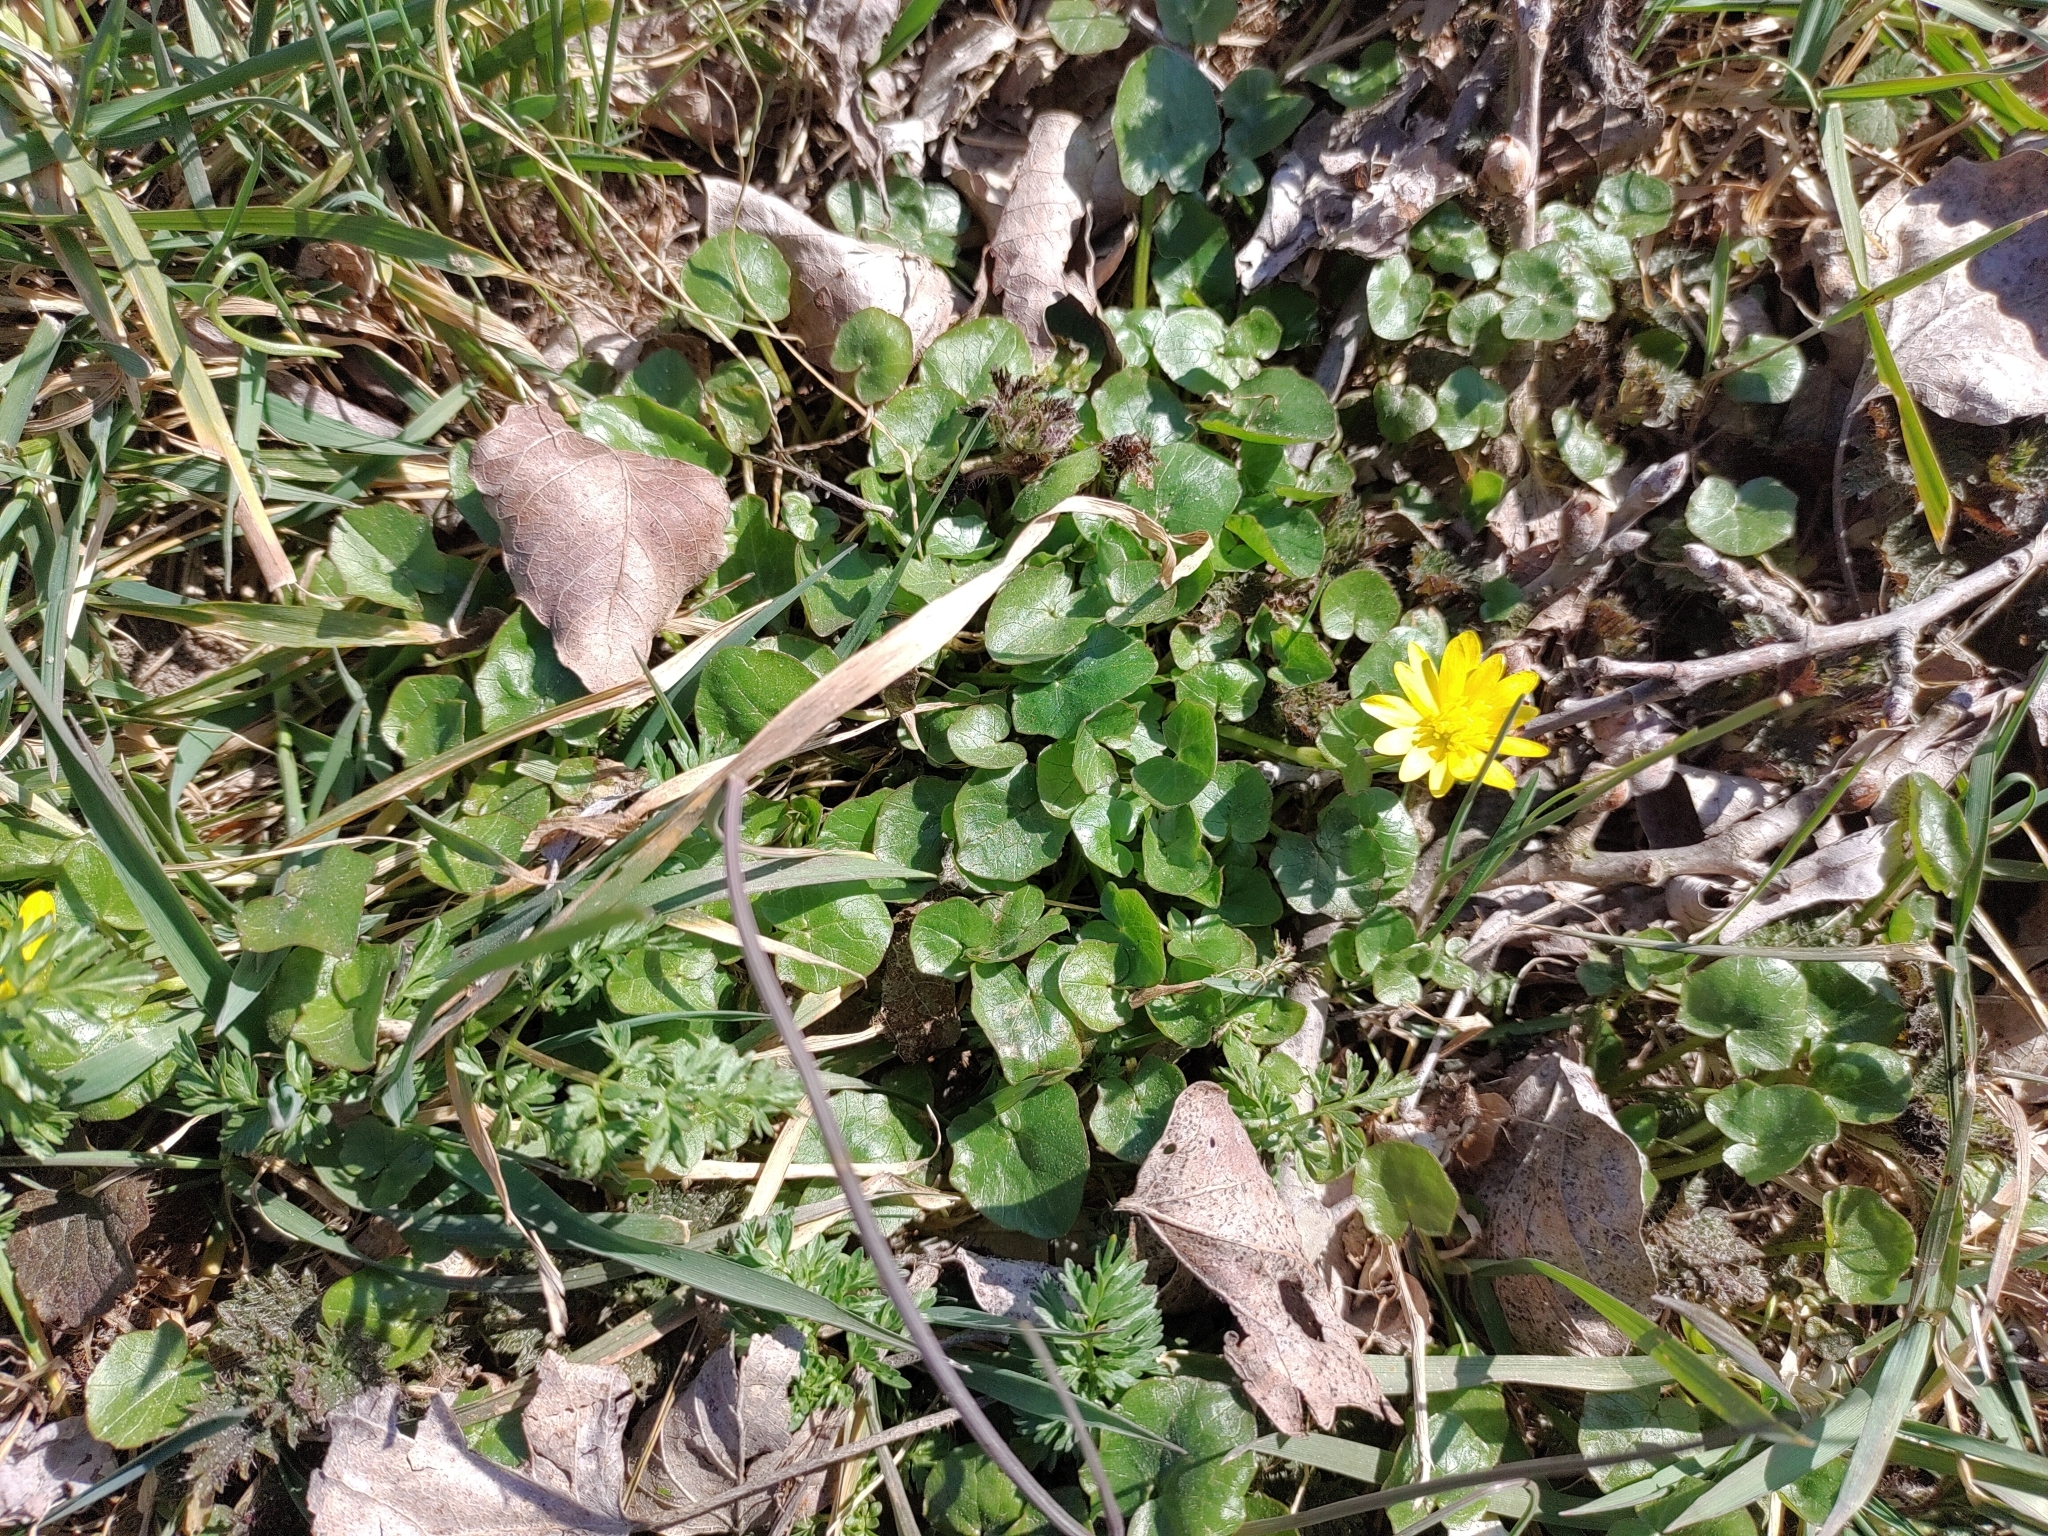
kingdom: Plantae
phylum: Tracheophyta
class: Magnoliopsida
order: Ranunculales
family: Ranunculaceae
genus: Ficaria
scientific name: Ficaria verna
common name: Lesser celandine
